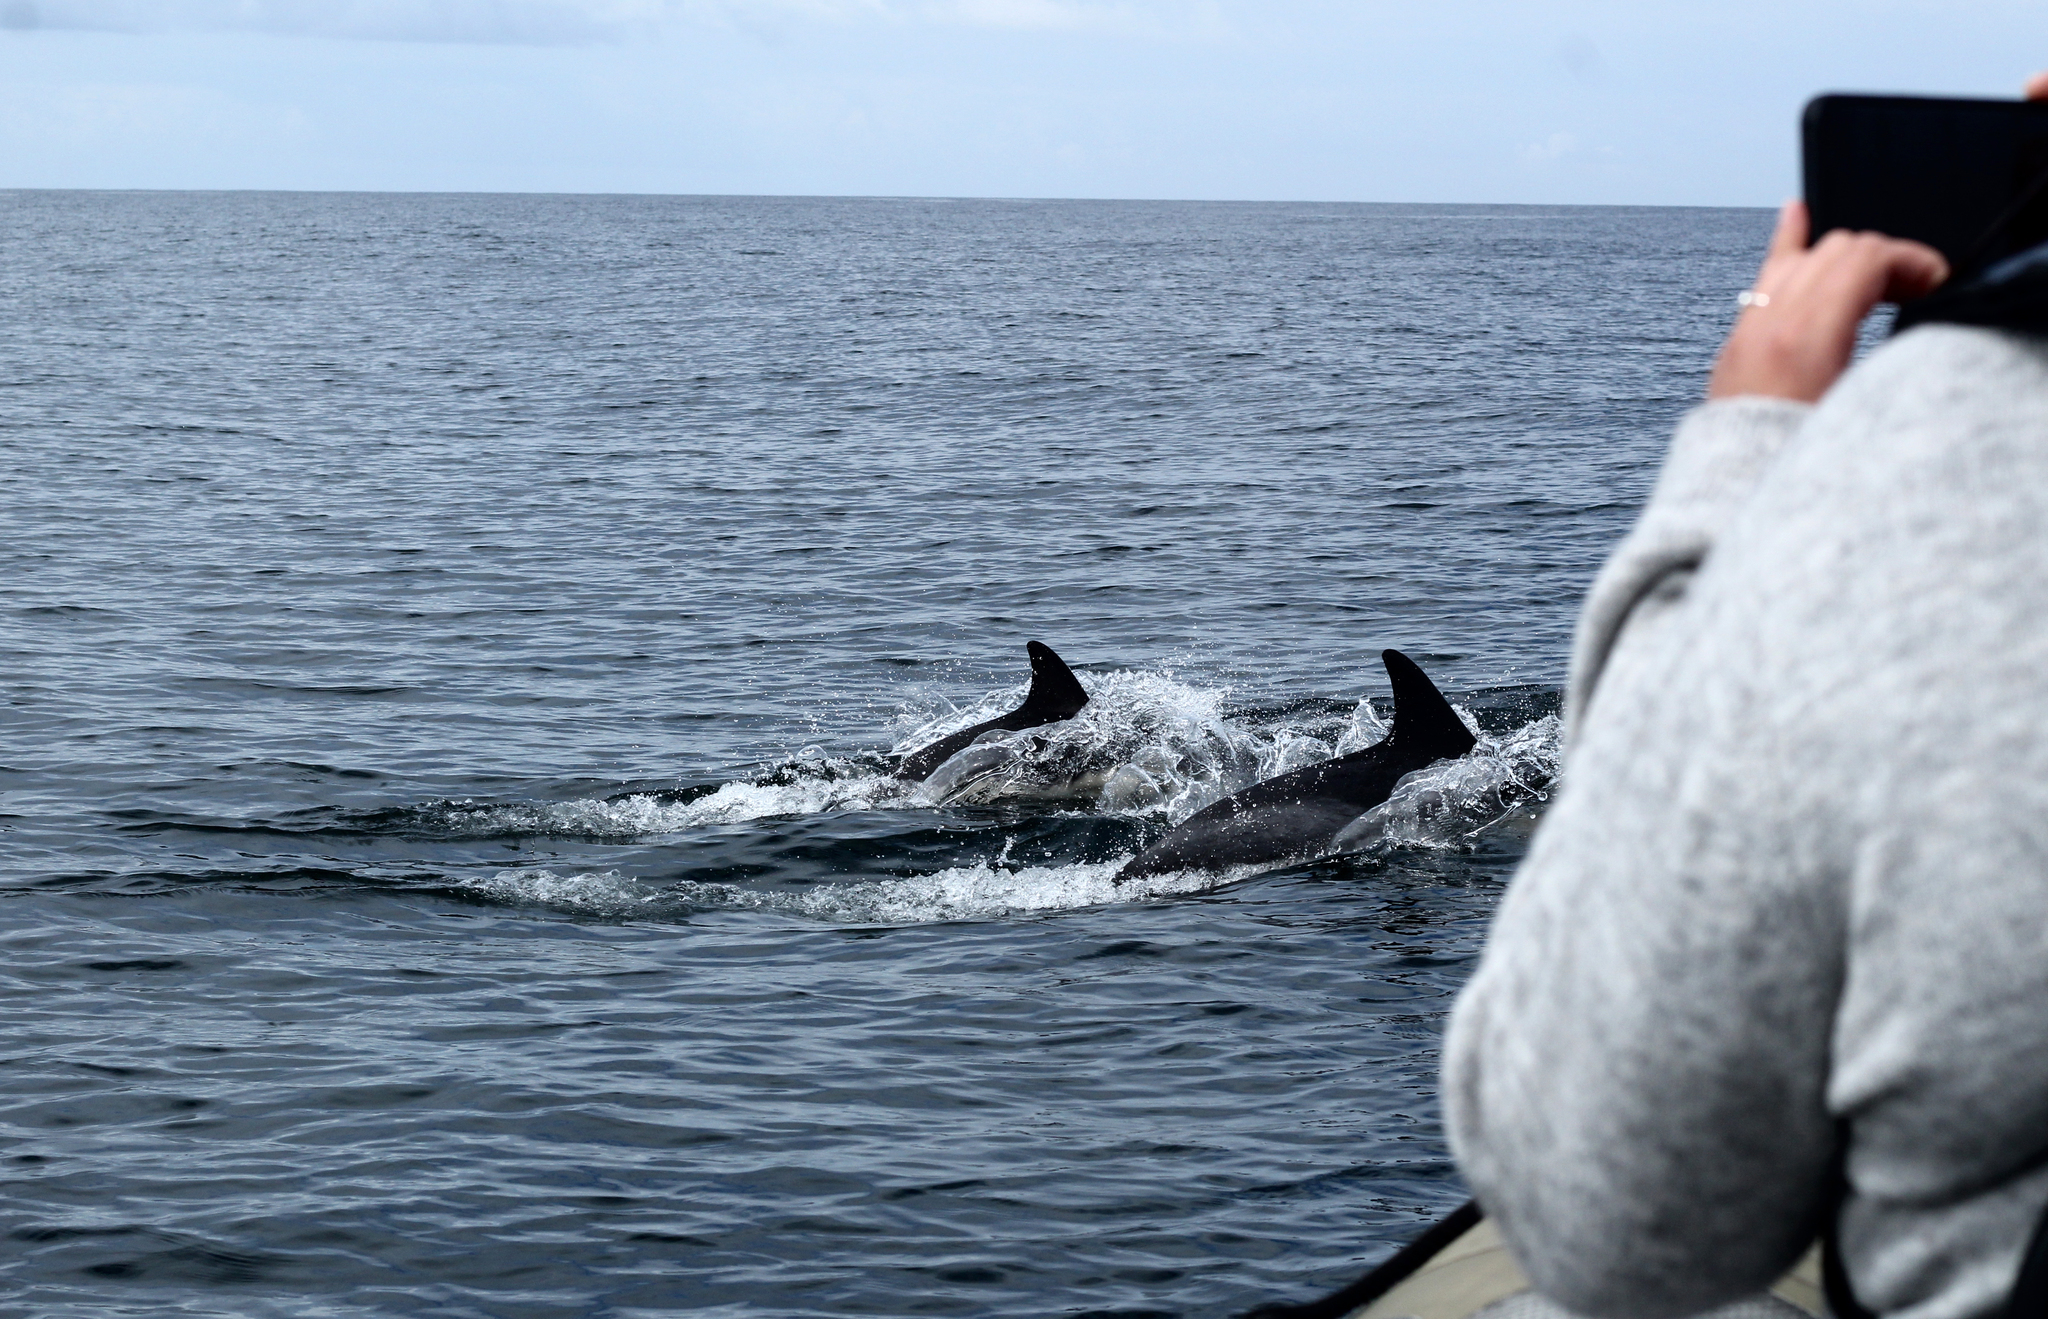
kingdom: Animalia
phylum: Chordata
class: Mammalia
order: Cetacea
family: Delphinidae
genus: Delphinus
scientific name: Delphinus delphis
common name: Common dolphin
